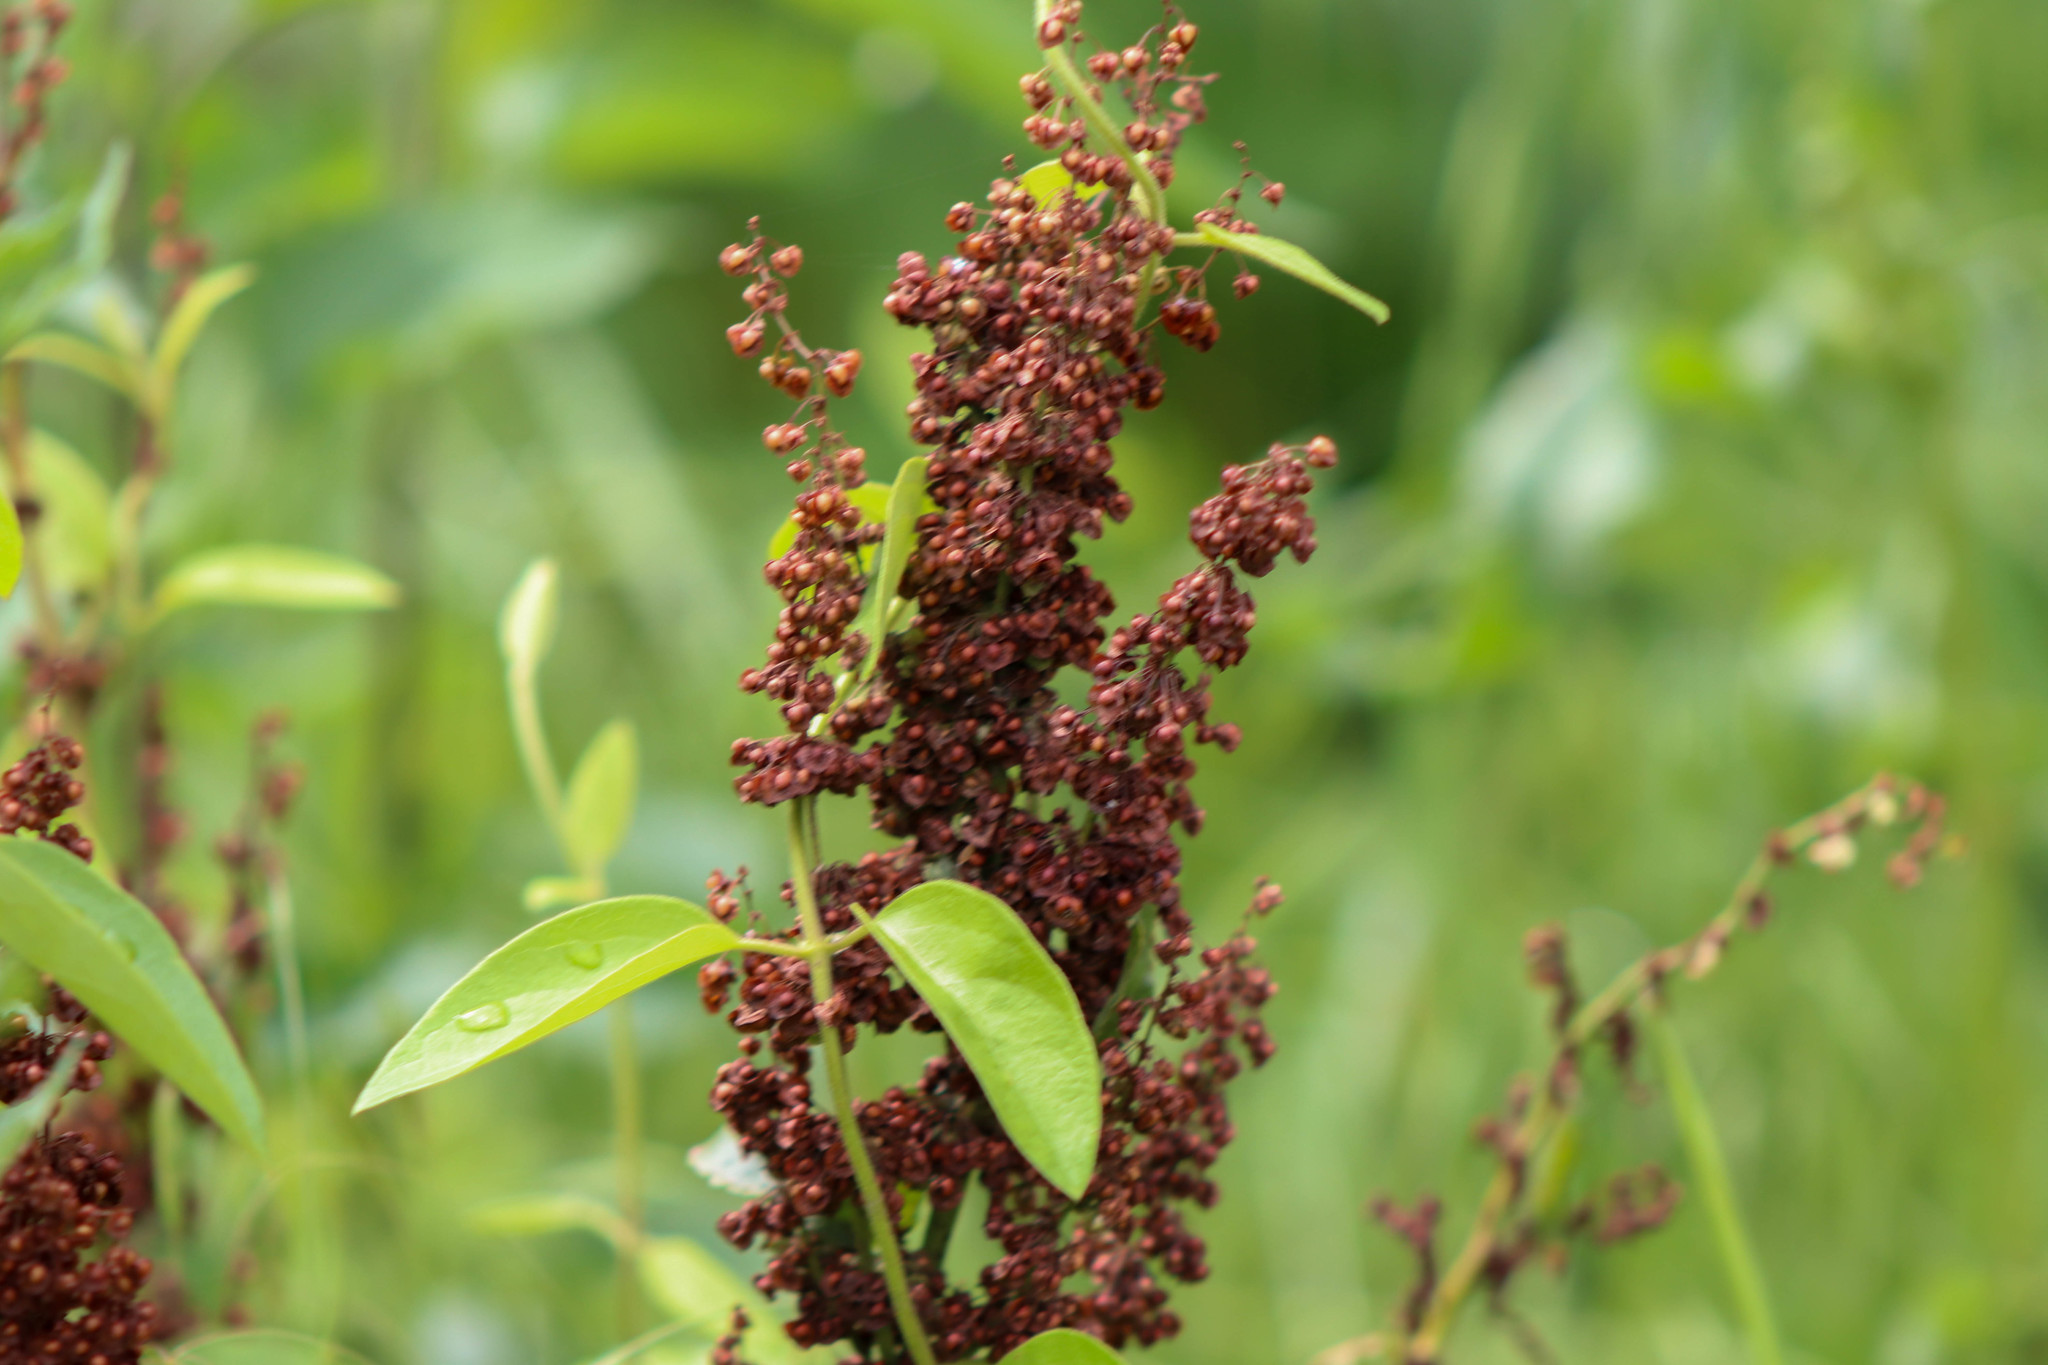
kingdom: Plantae
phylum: Tracheophyta
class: Magnoliopsida
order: Caryophyllales
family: Polygonaceae
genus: Rumex
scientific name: Rumex crispus
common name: Curled dock
